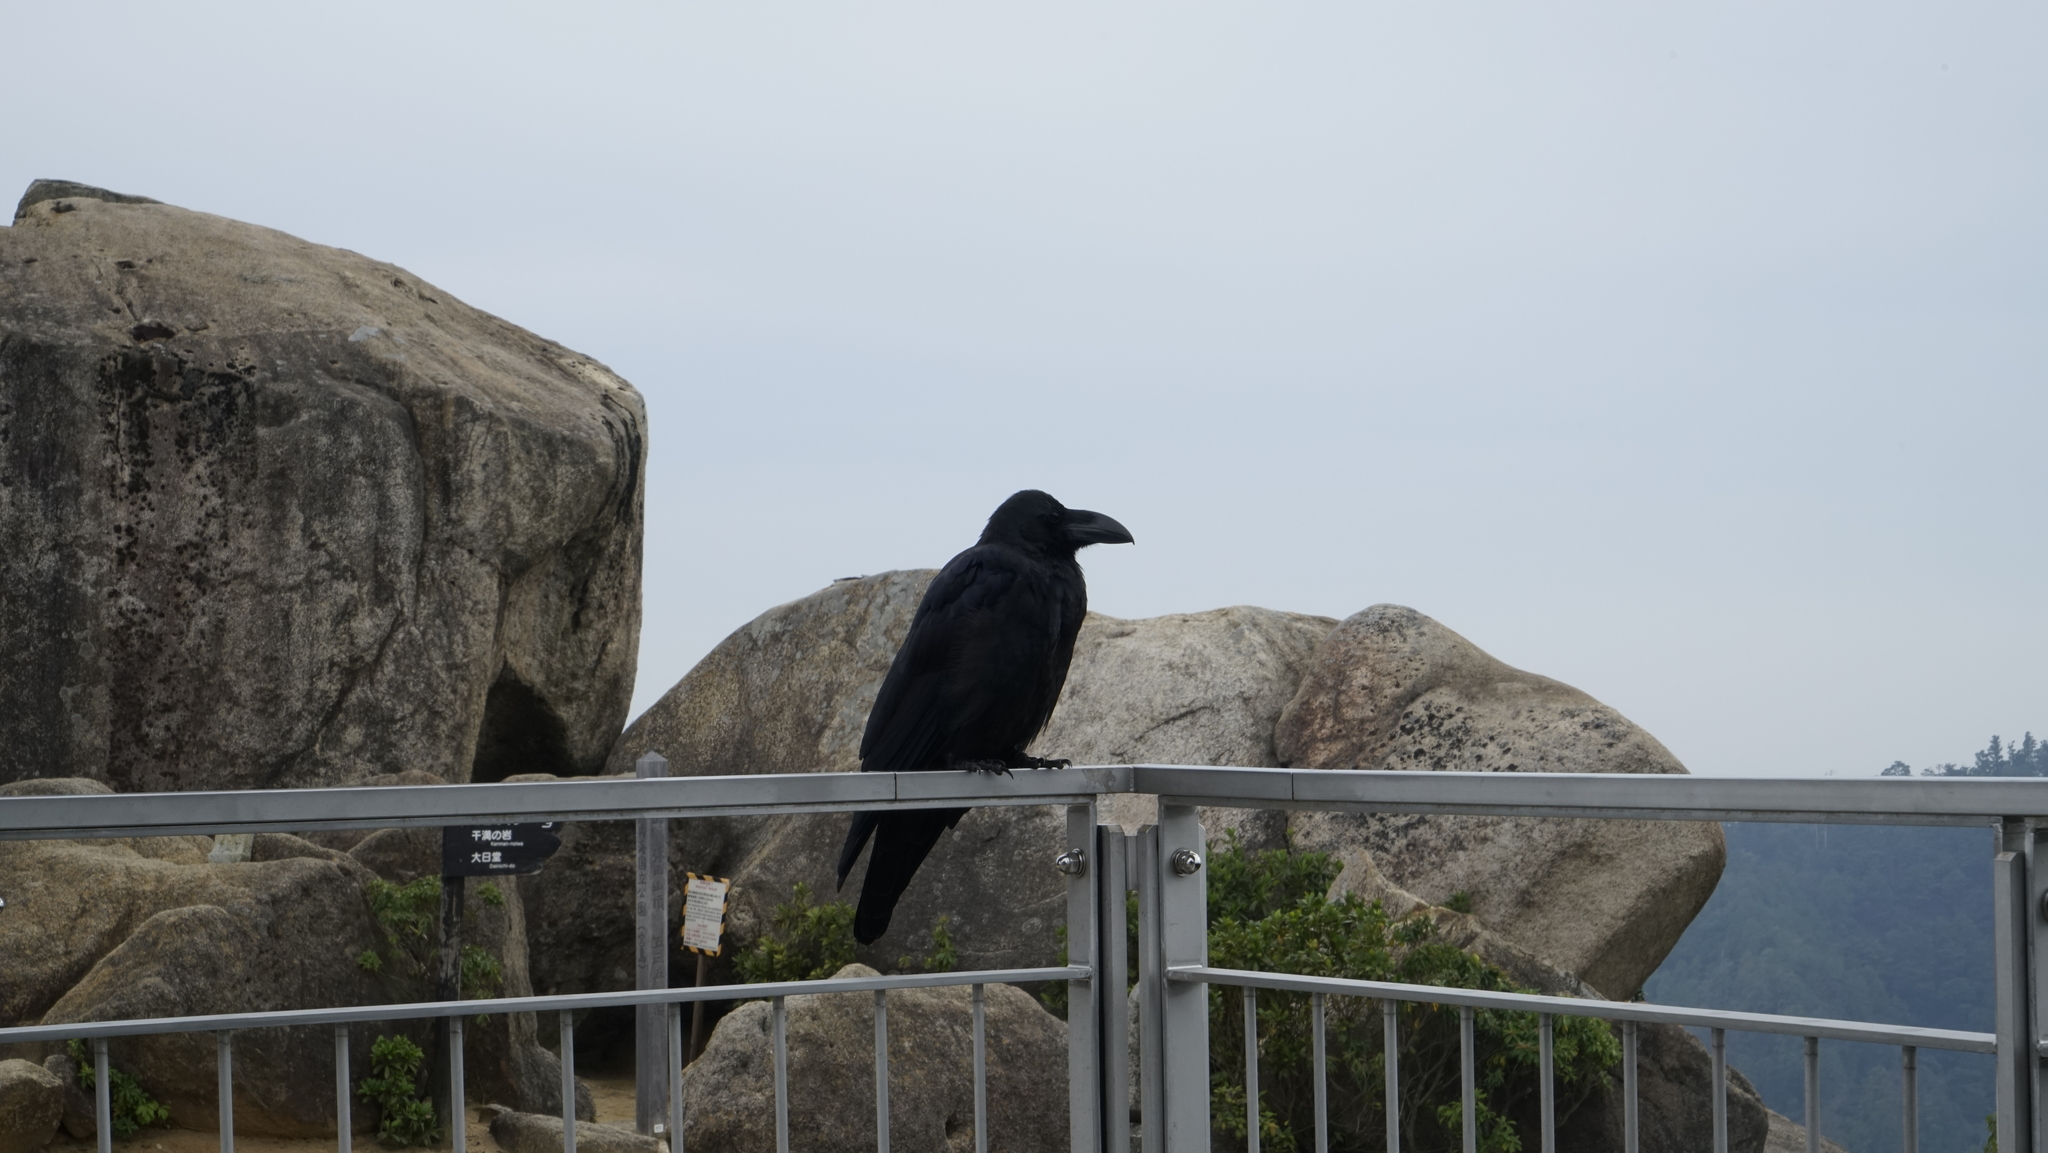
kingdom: Animalia
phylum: Chordata
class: Aves
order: Passeriformes
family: Corvidae
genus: Corvus
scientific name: Corvus macrorhynchos
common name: Large-billed crow
